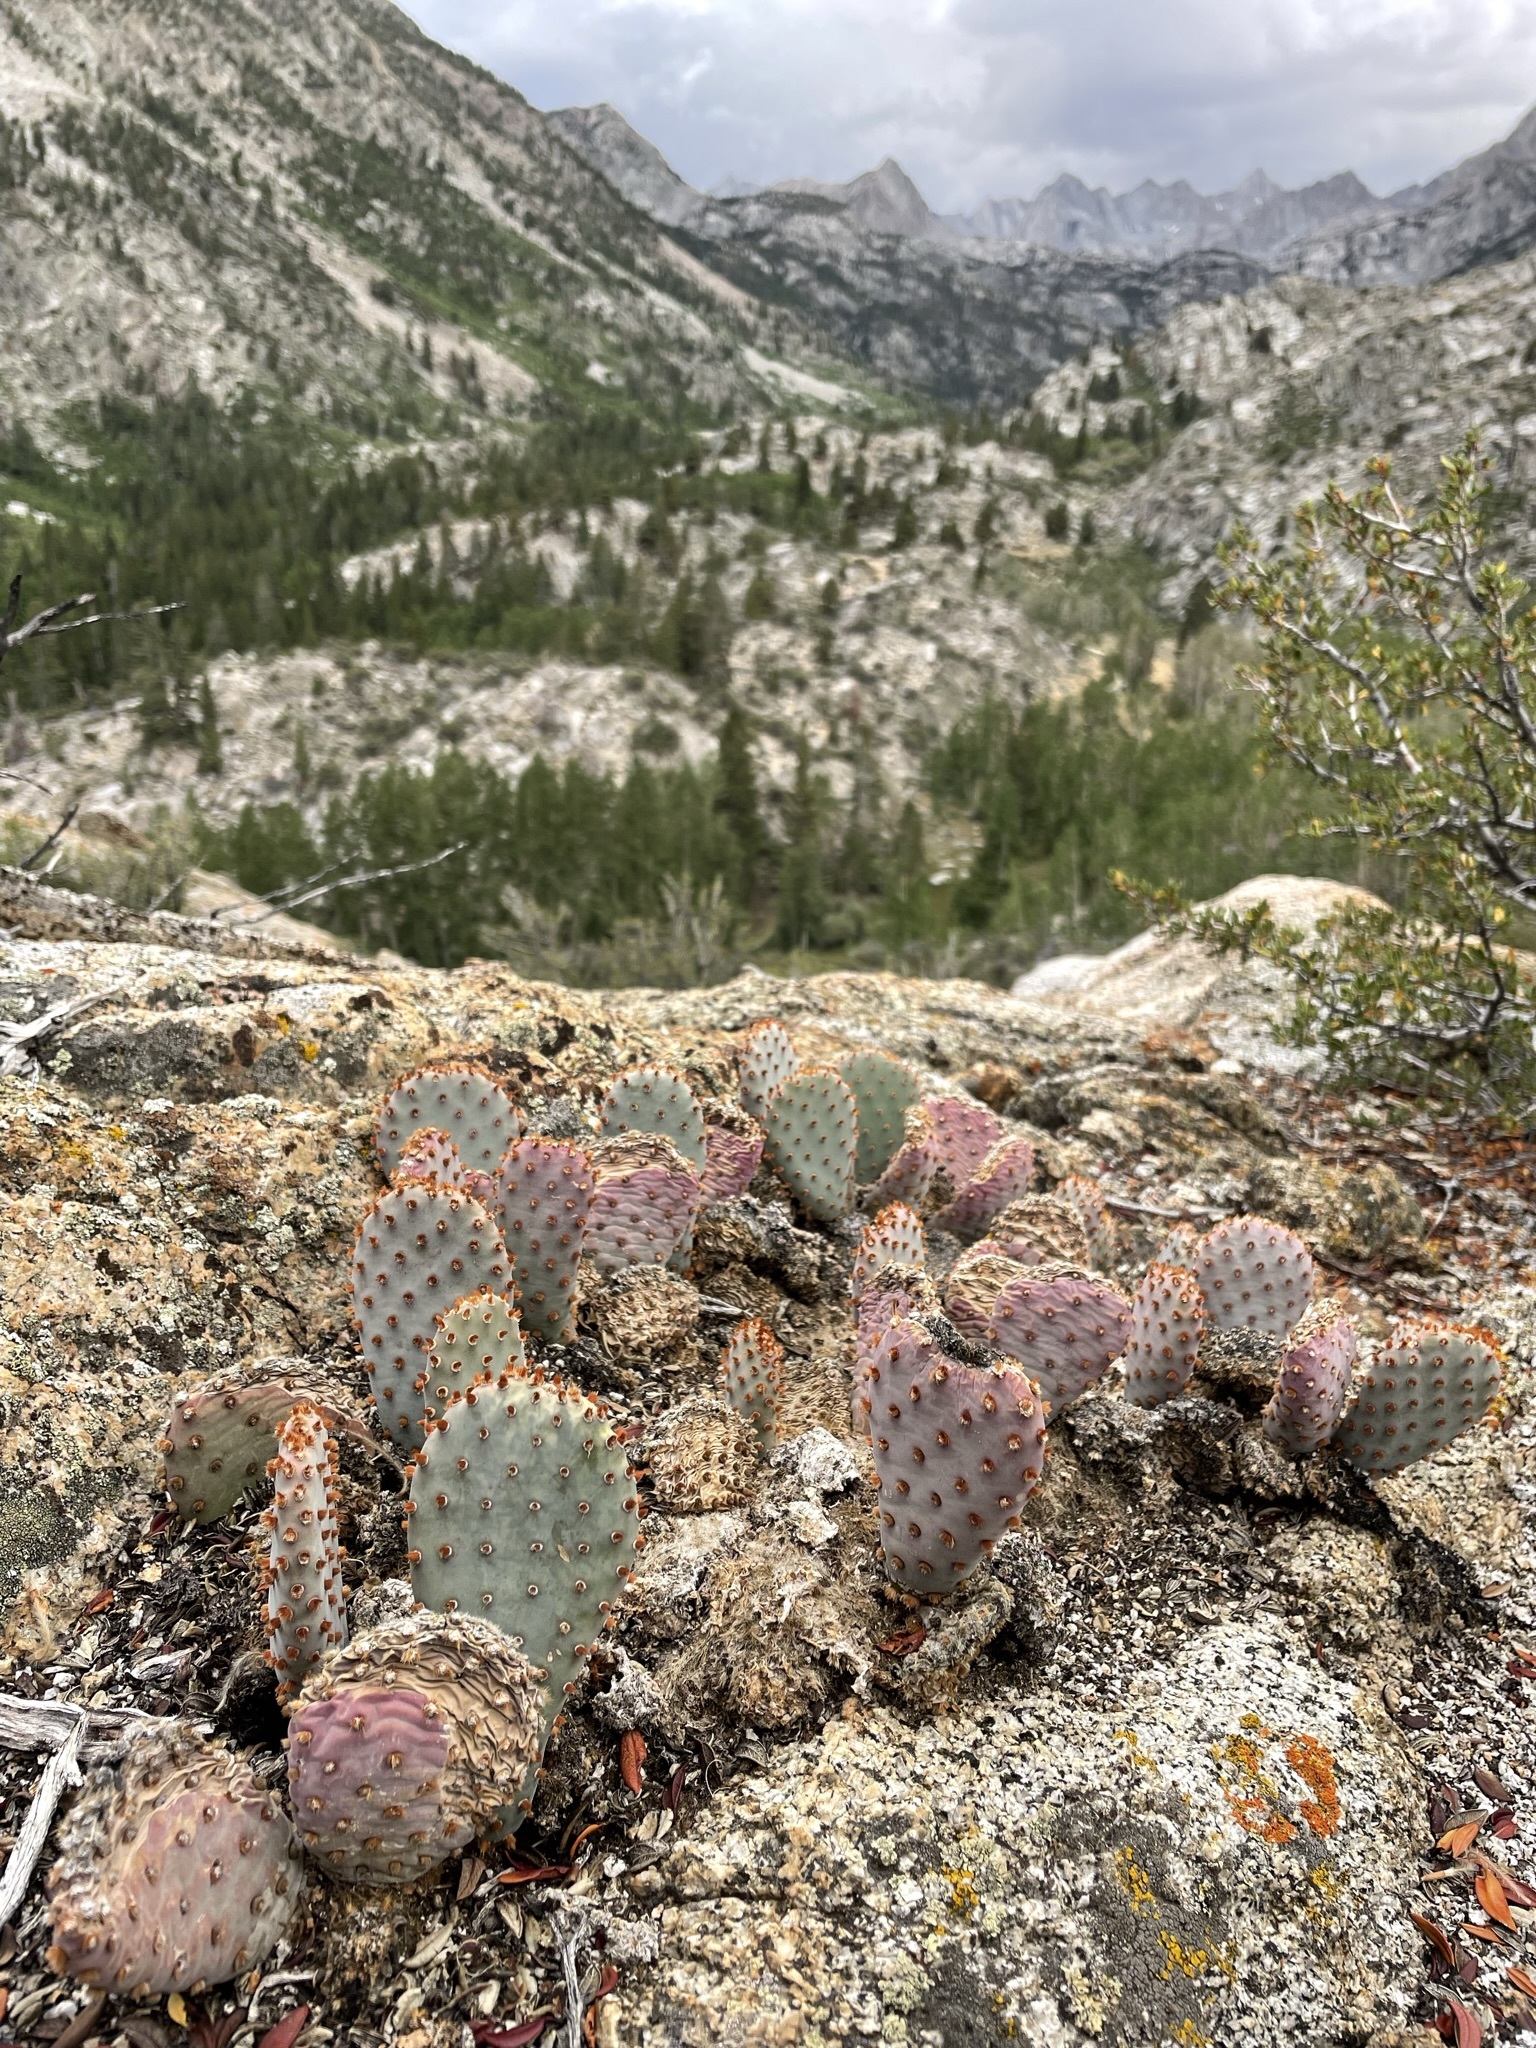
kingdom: Plantae
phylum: Tracheophyta
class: Magnoliopsida
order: Caryophyllales
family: Cactaceae
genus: Opuntia
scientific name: Opuntia basilaris
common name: Beavertail prickly-pear
